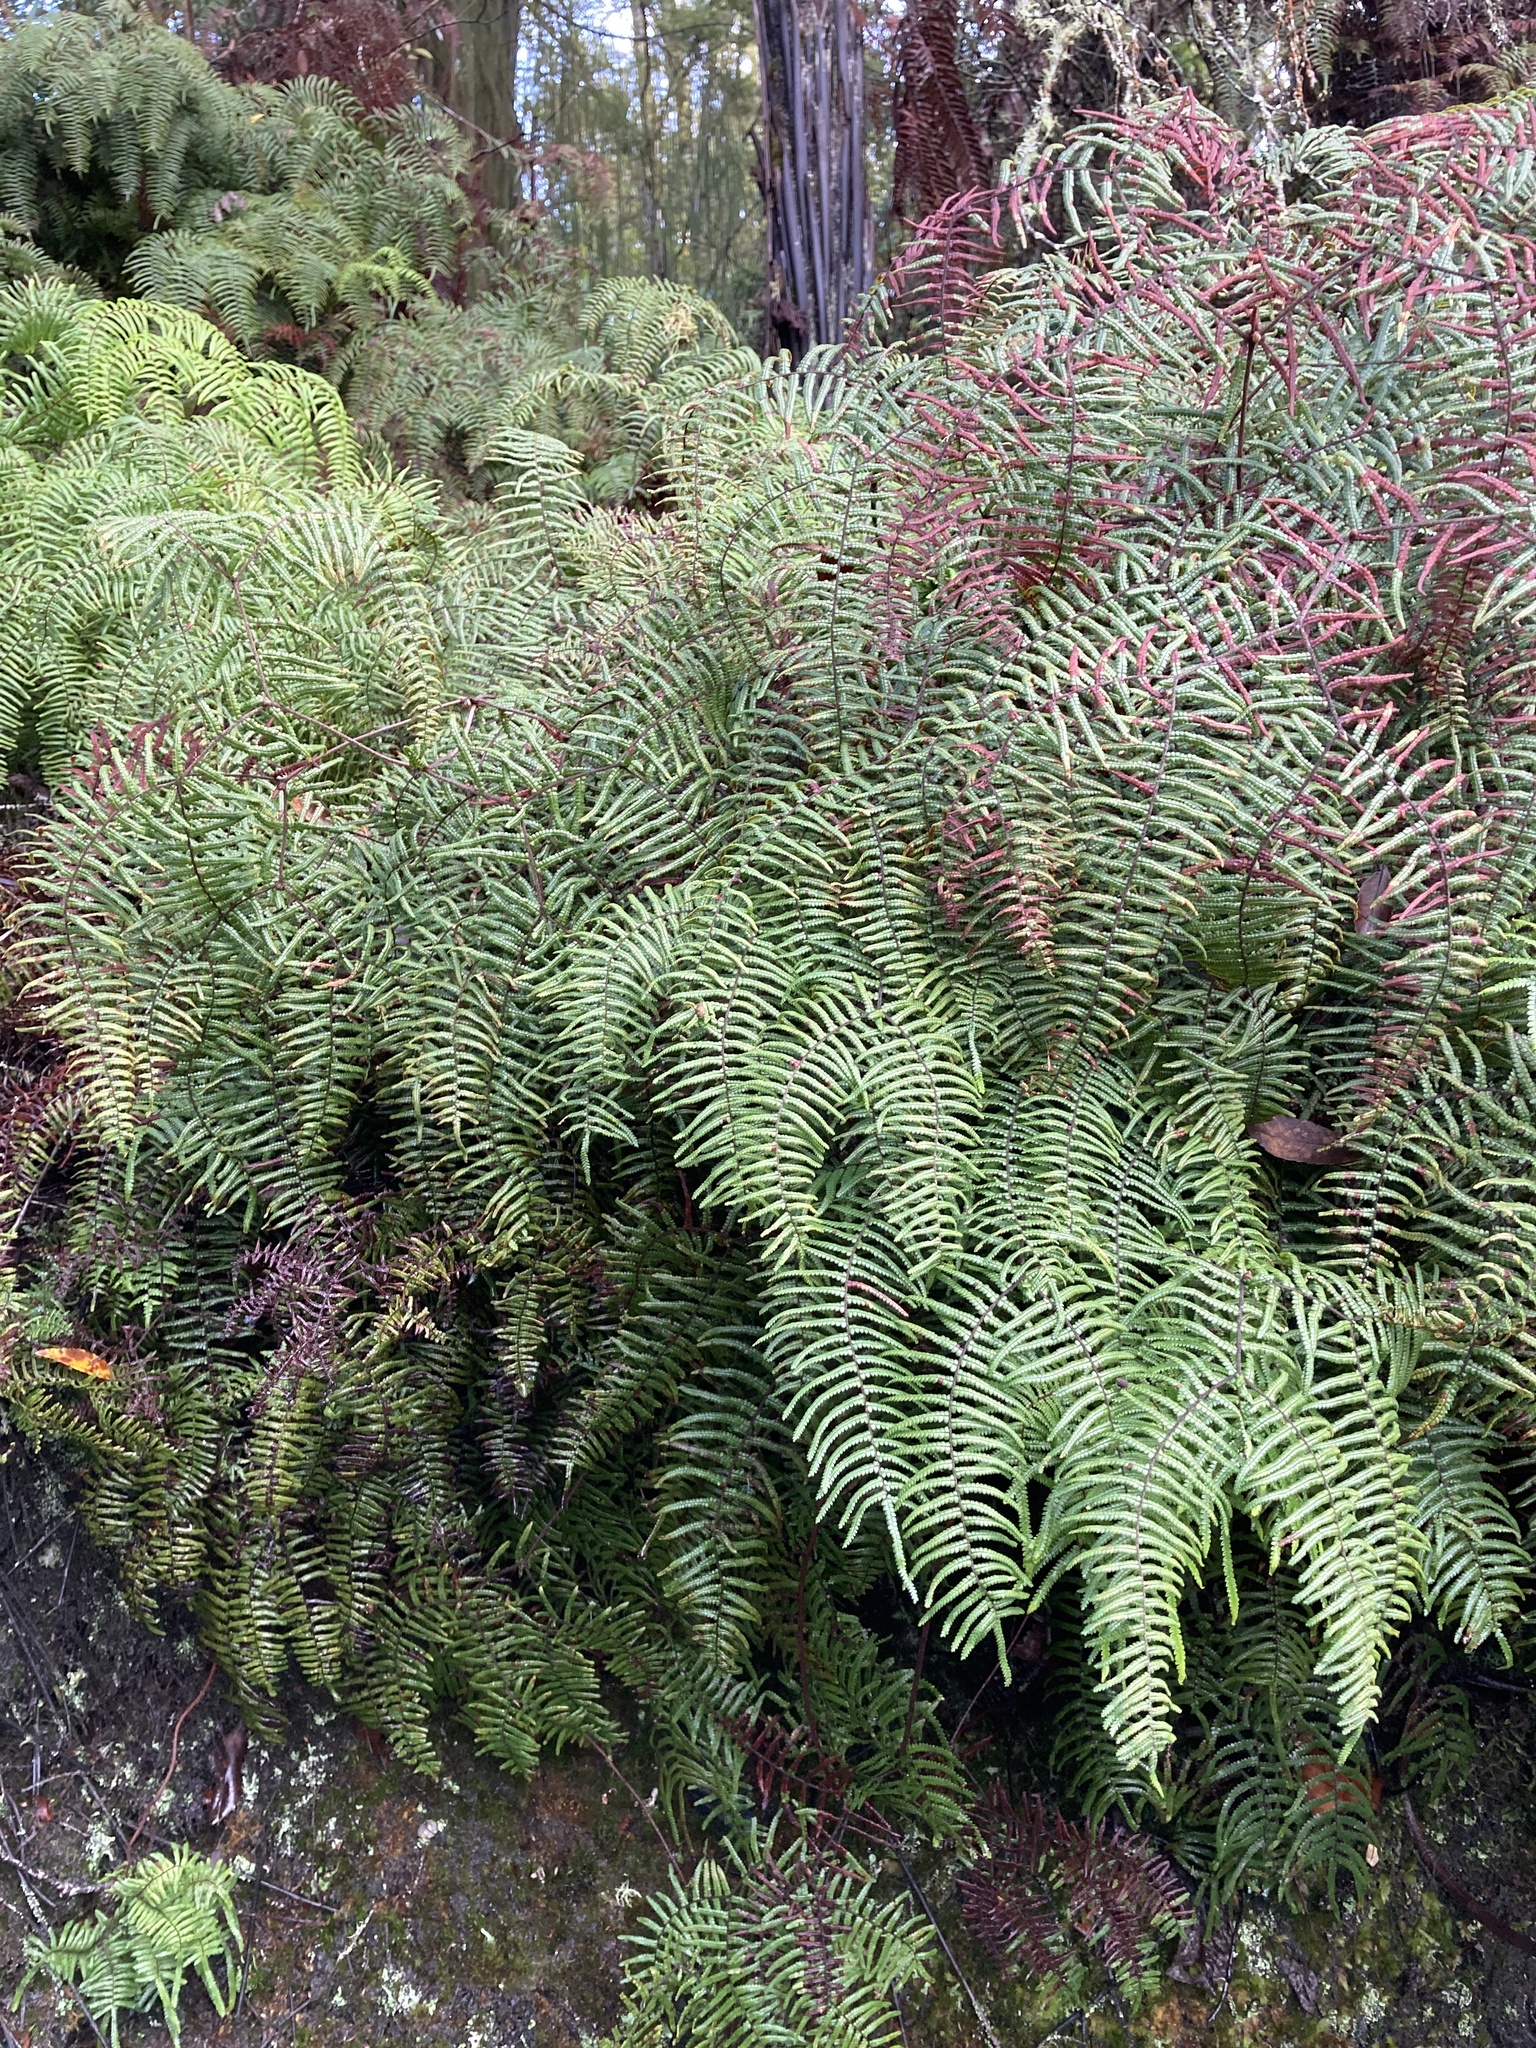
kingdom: Plantae
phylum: Tracheophyta
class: Polypodiopsida
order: Gleicheniales
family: Gleicheniaceae
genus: Gleichenia
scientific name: Gleichenia microphylla
